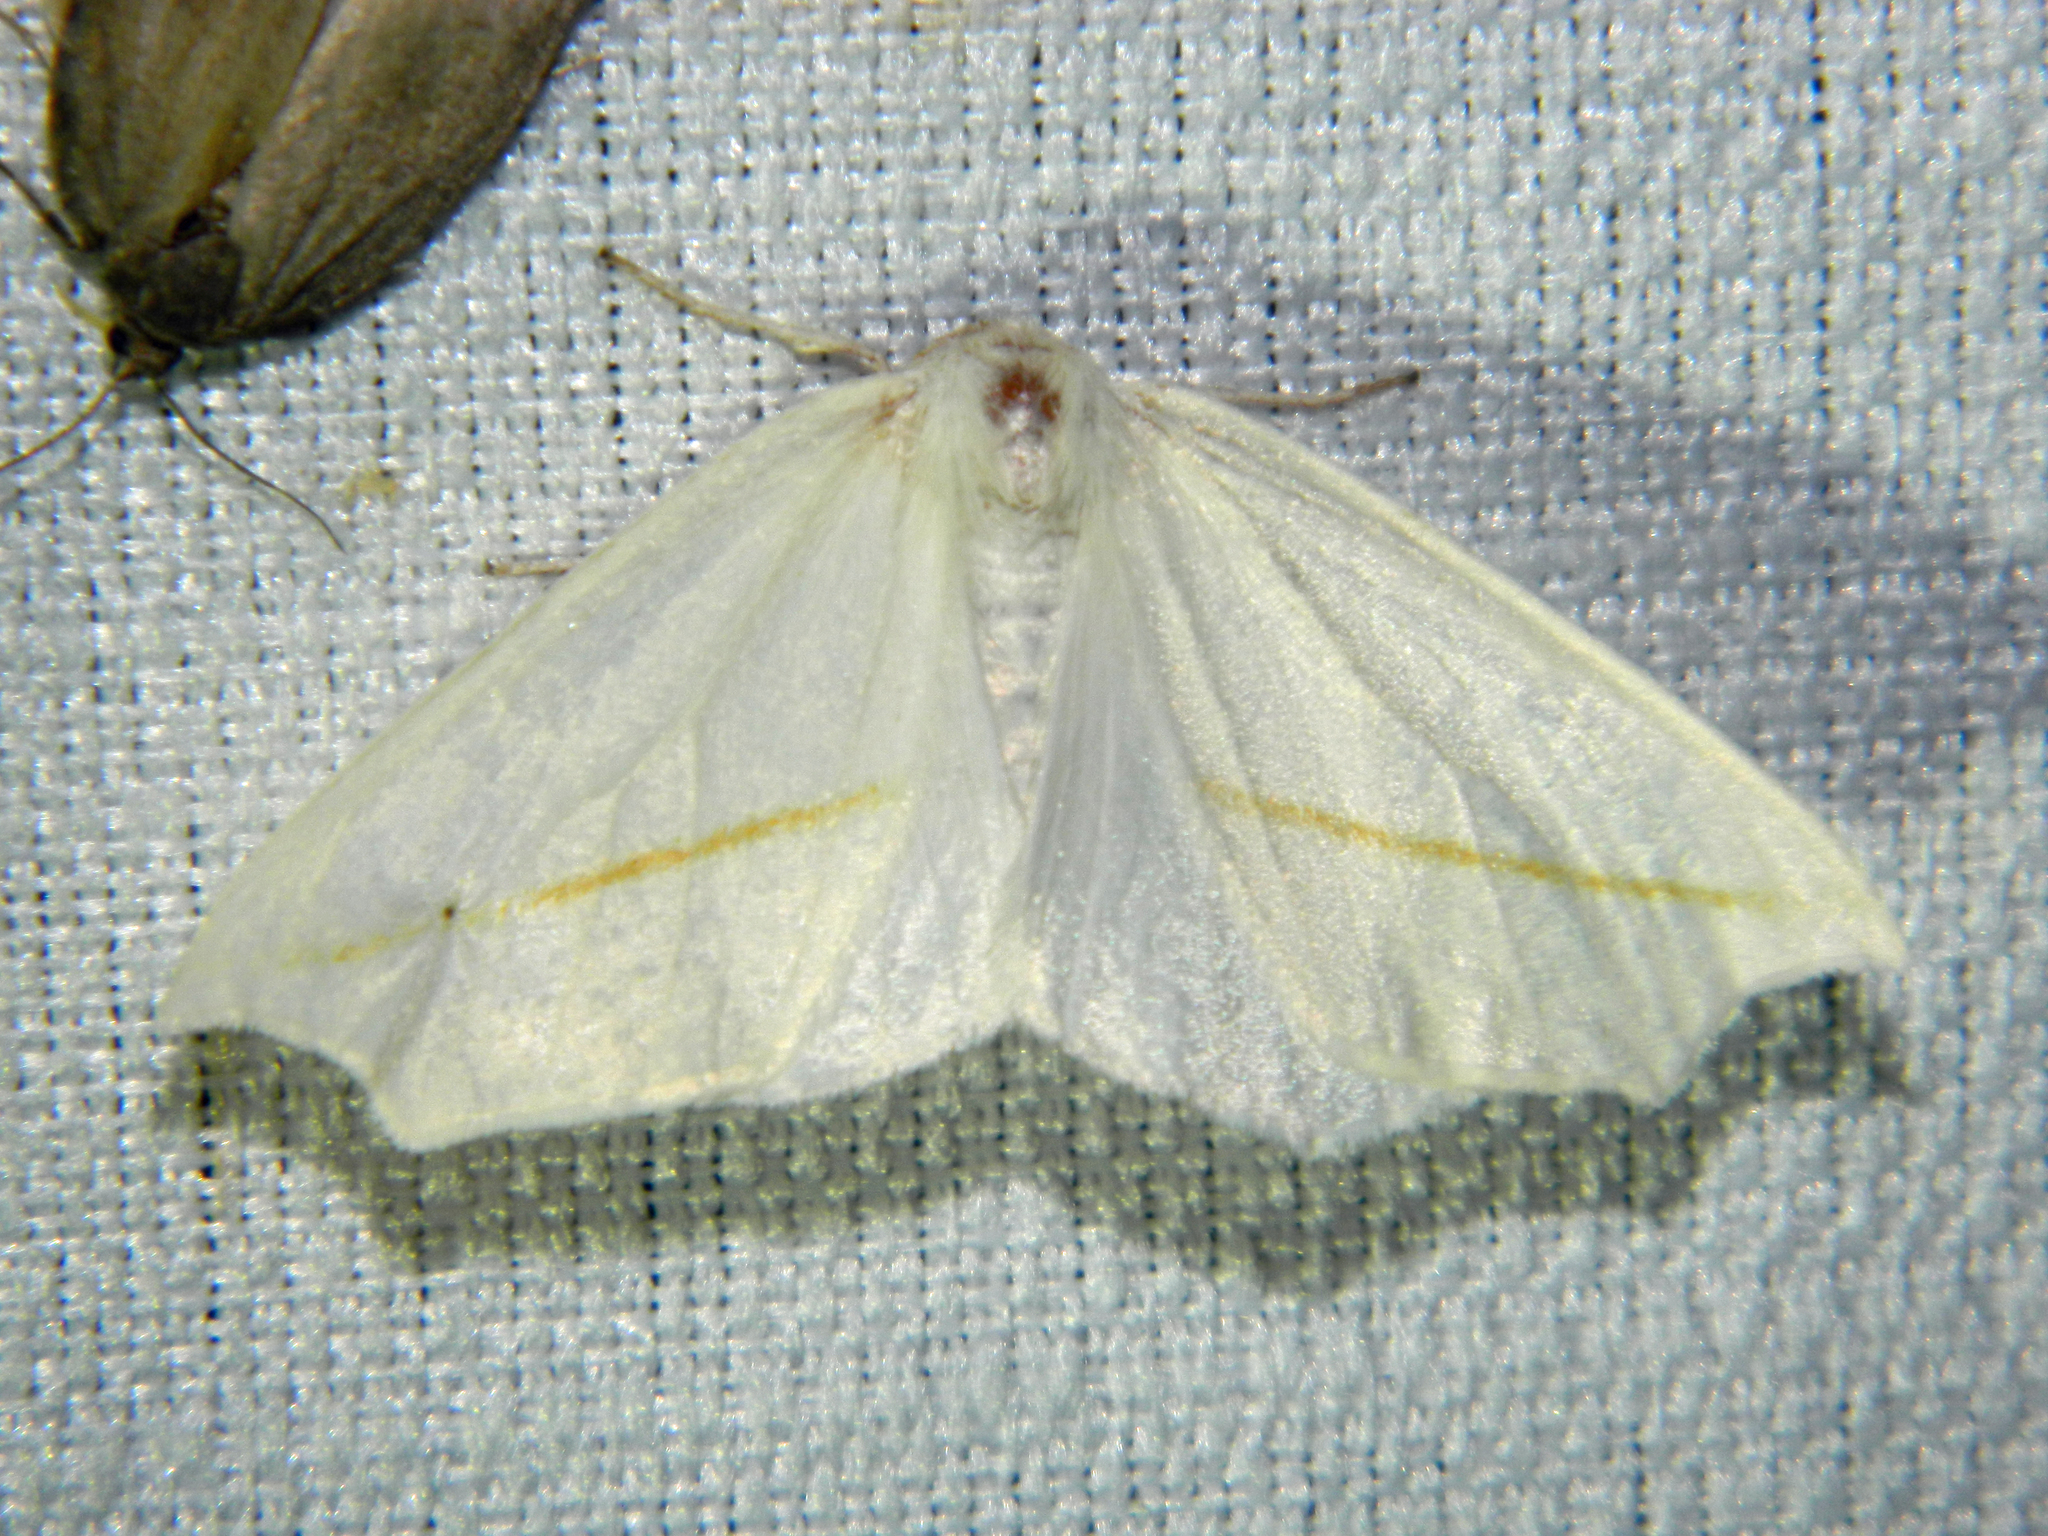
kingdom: Animalia
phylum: Arthropoda
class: Insecta
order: Lepidoptera
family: Geometridae
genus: Tetracis
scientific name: Tetracis cachexiata
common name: White slant-line
